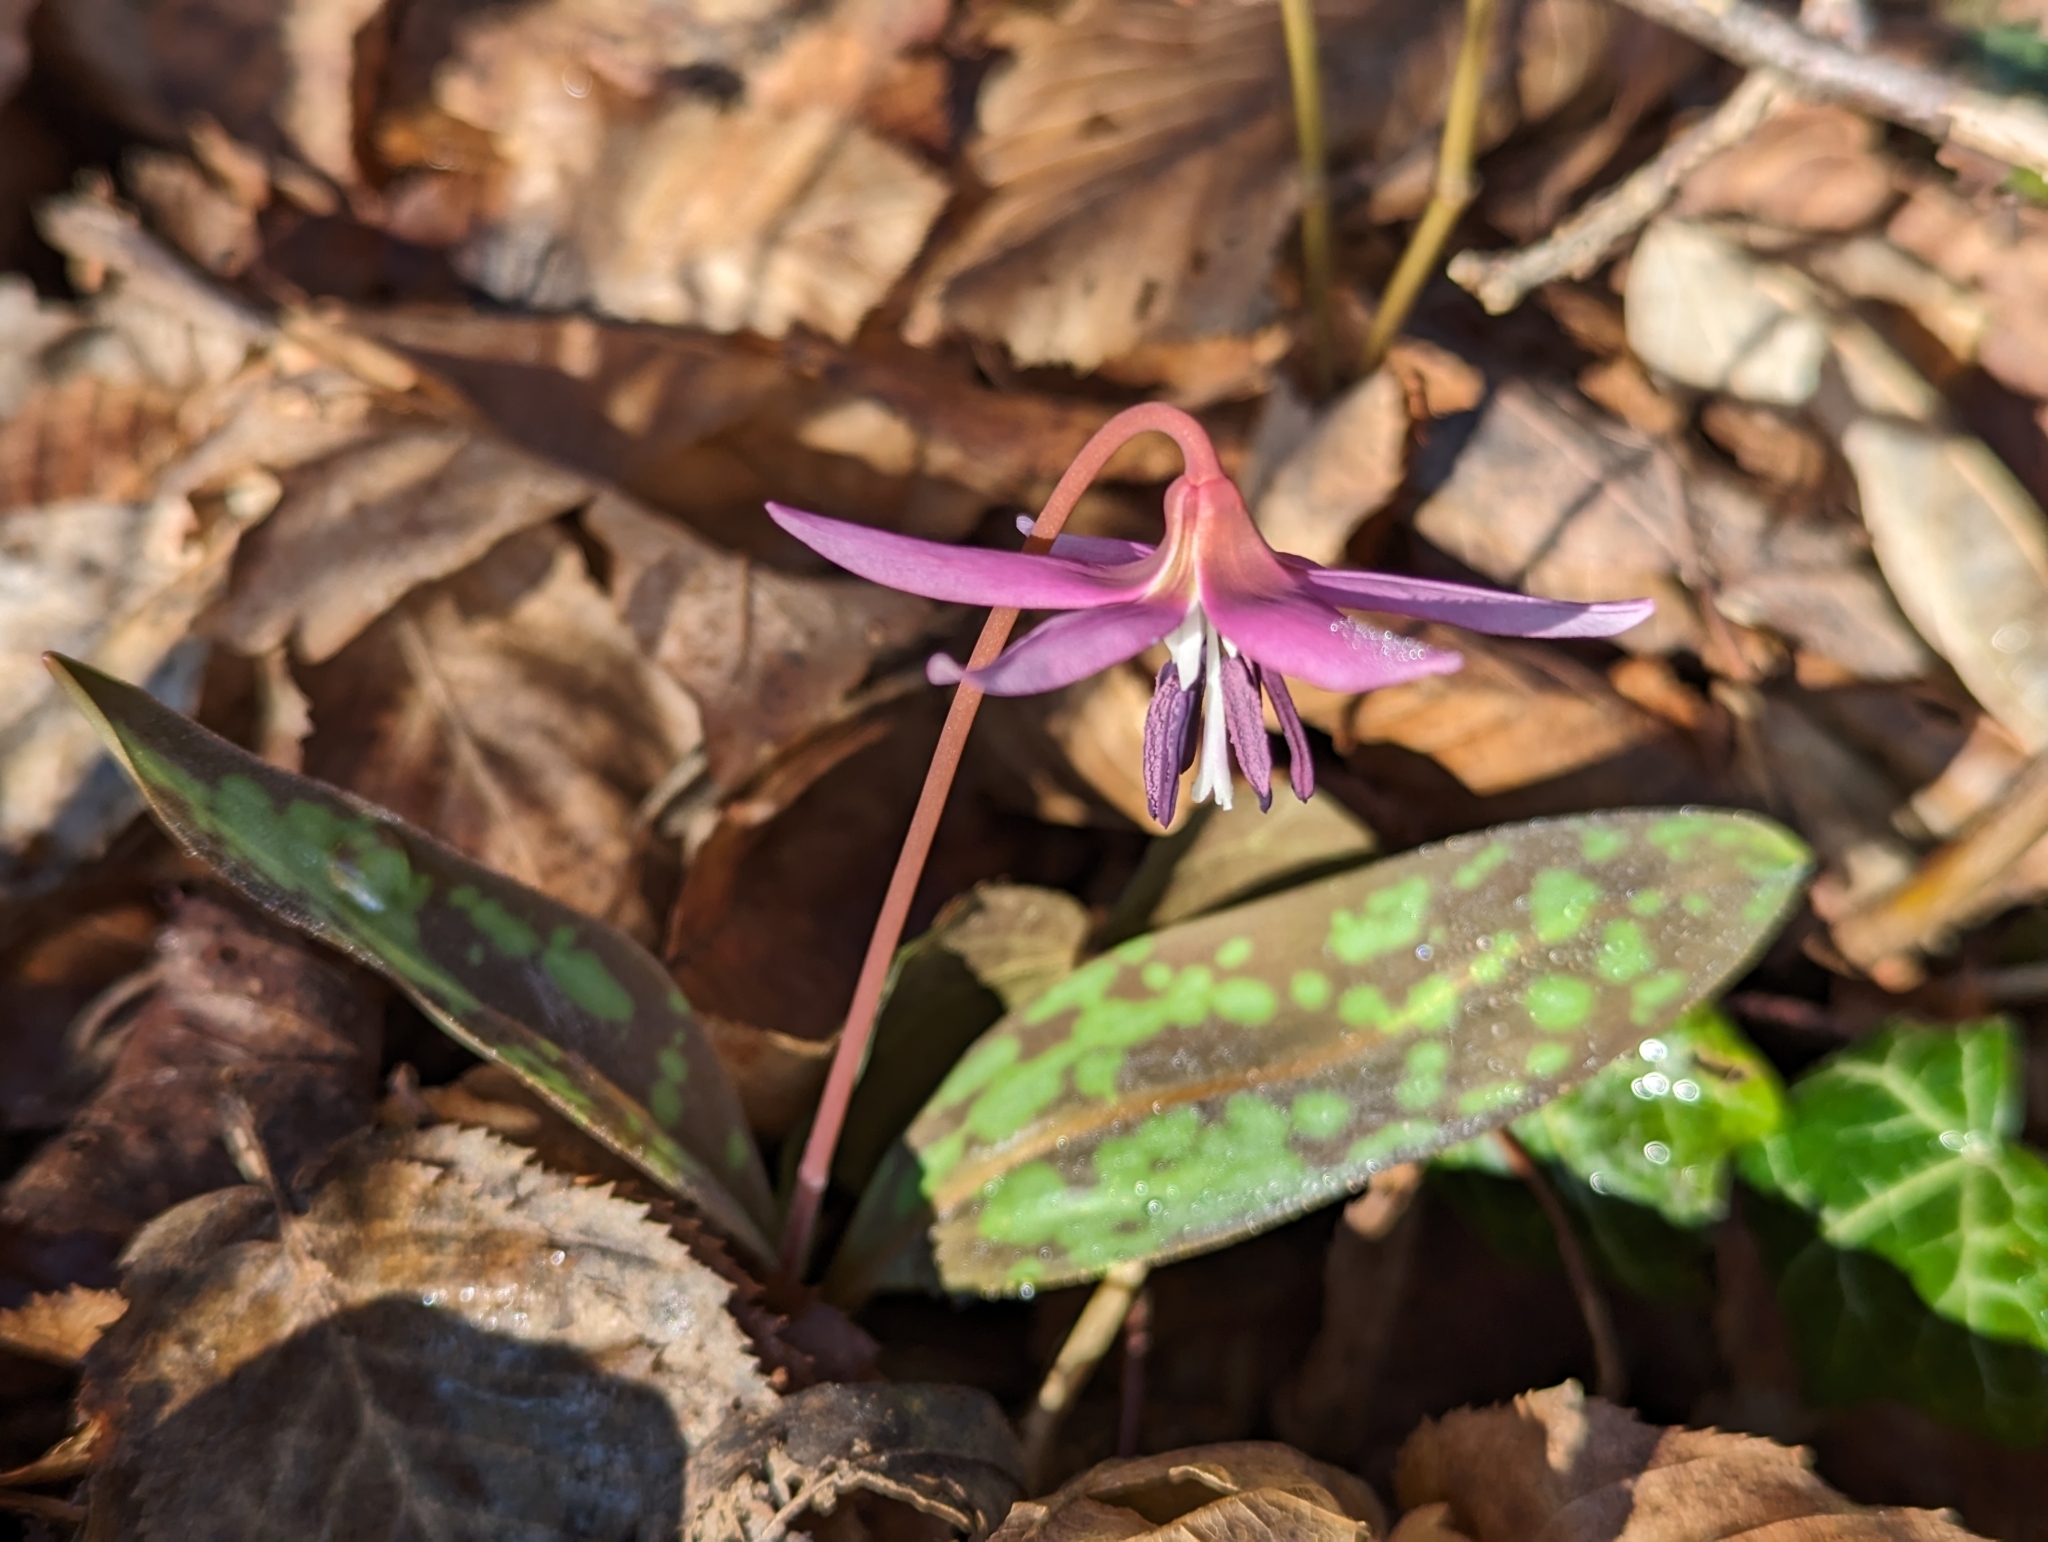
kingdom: Plantae
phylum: Tracheophyta
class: Liliopsida
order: Liliales
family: Liliaceae
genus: Erythronium
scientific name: Erythronium dens-canis
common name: Dog's-tooth-violet
